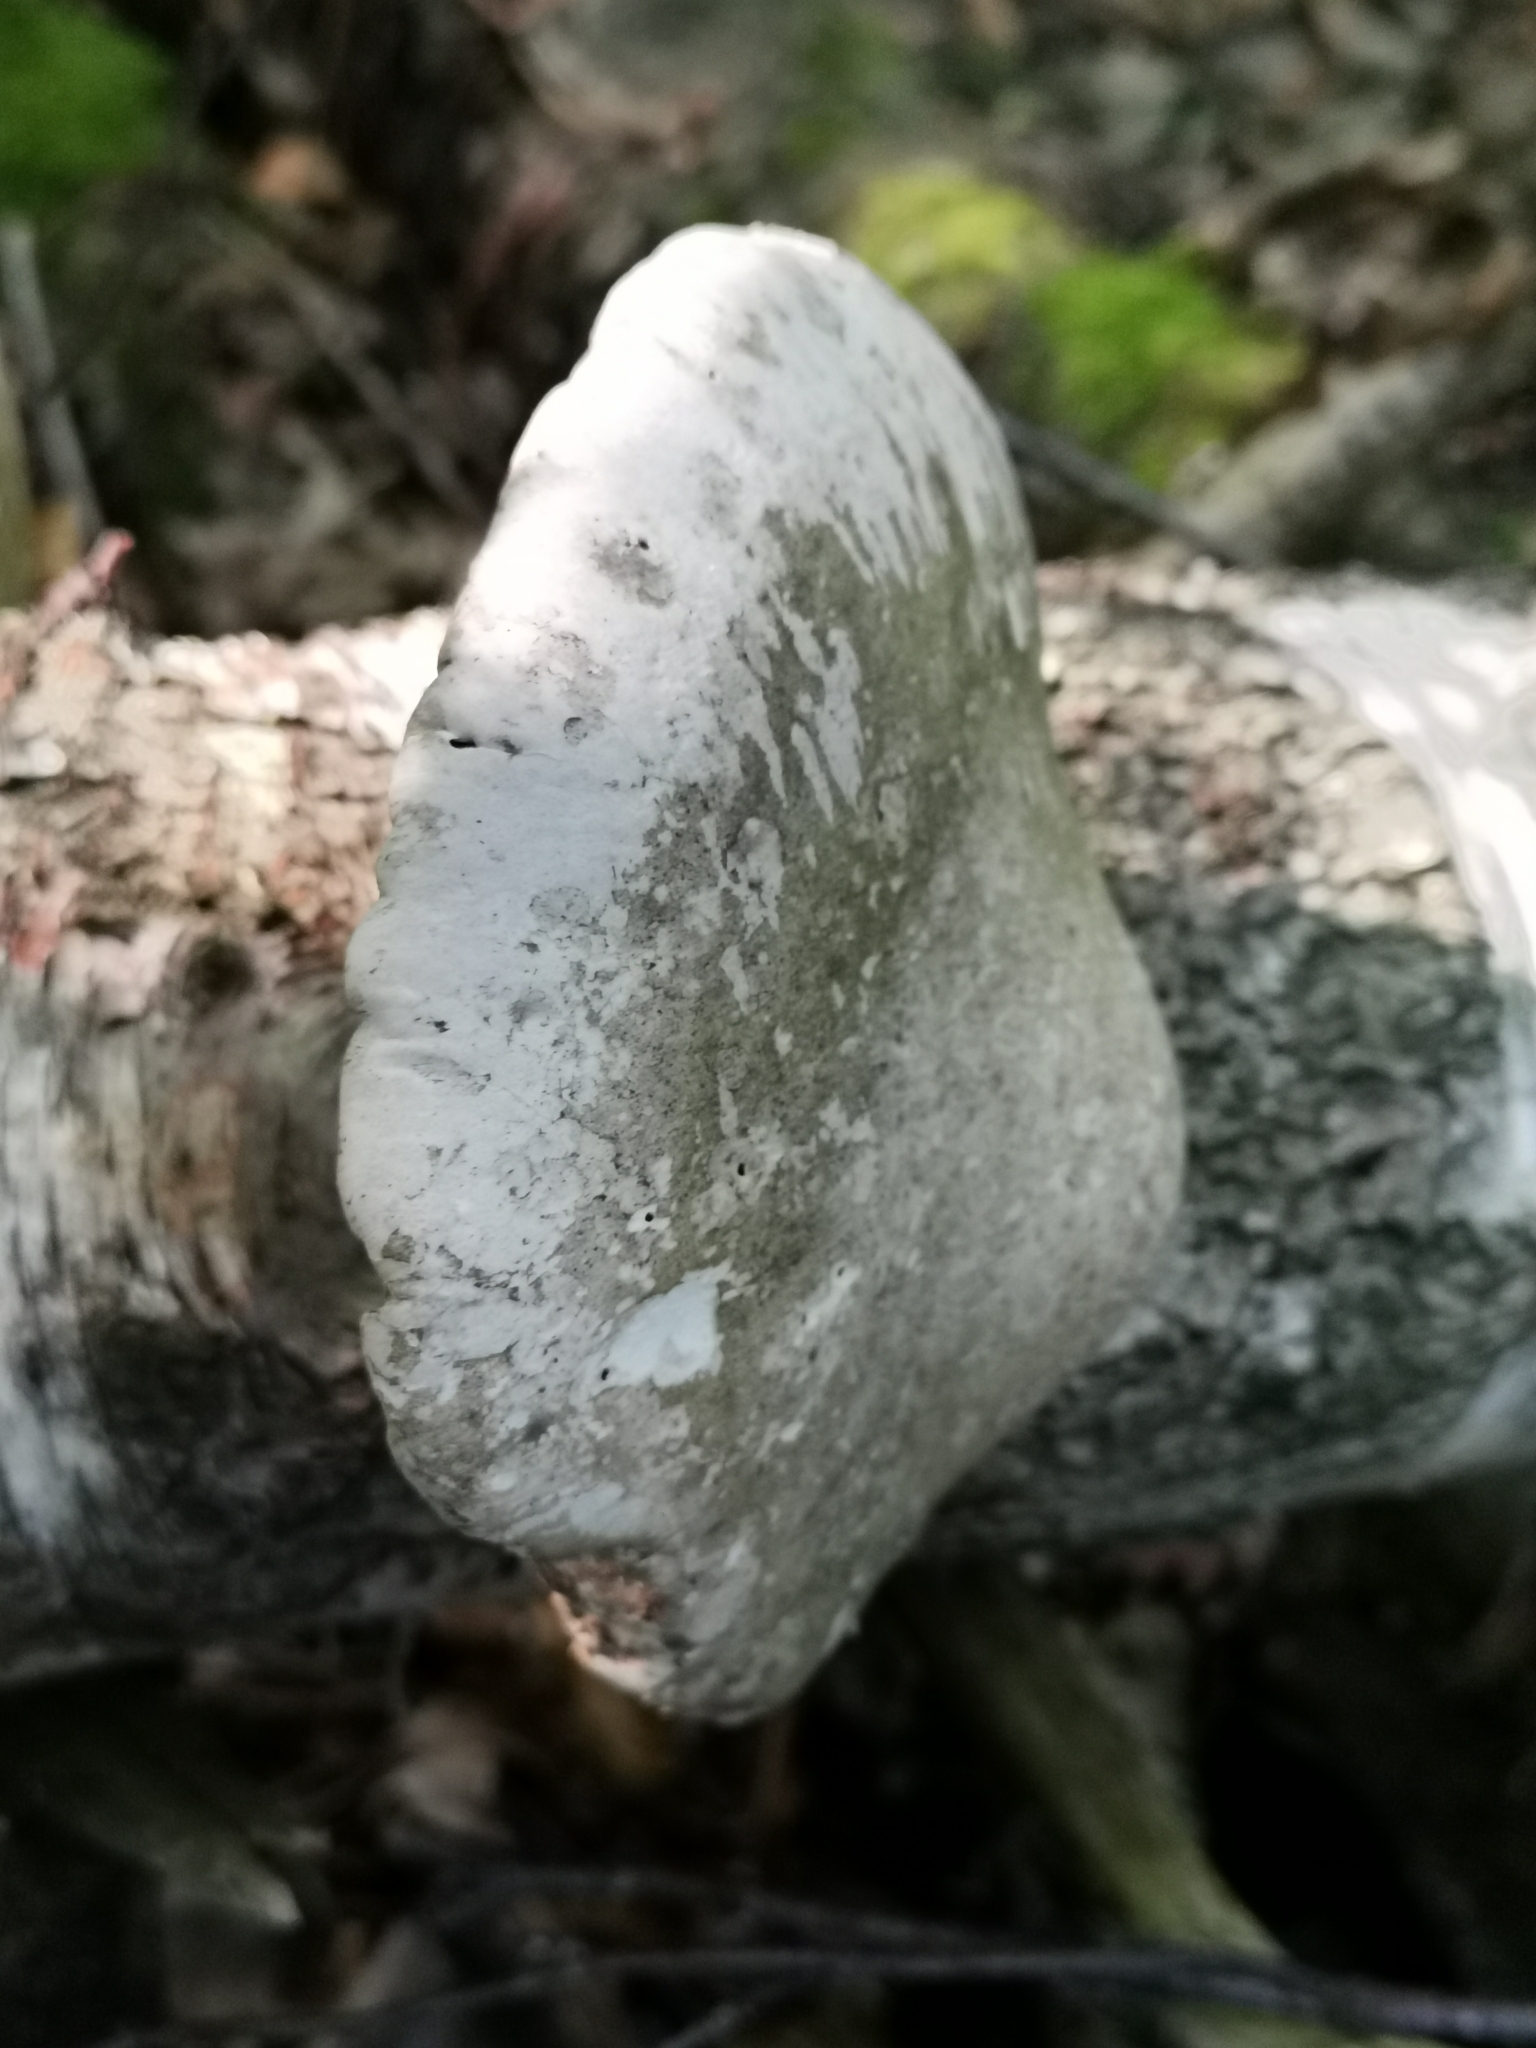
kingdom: Fungi
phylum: Basidiomycota
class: Agaricomycetes
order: Polyporales
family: Fomitopsidaceae
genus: Fomitopsis
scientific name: Fomitopsis betulina
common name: Birch polypore
